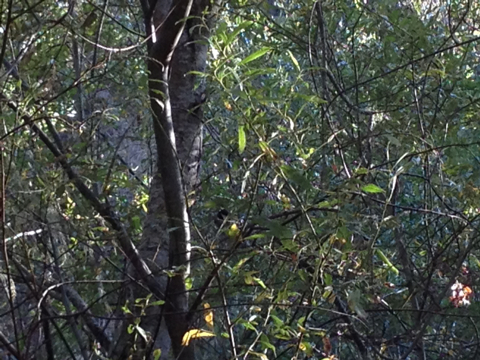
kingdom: Animalia
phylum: Chordata
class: Aves
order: Passeriformes
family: Paridae
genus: Poecile
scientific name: Poecile rufescens
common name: Chestnut-backed chickadee
